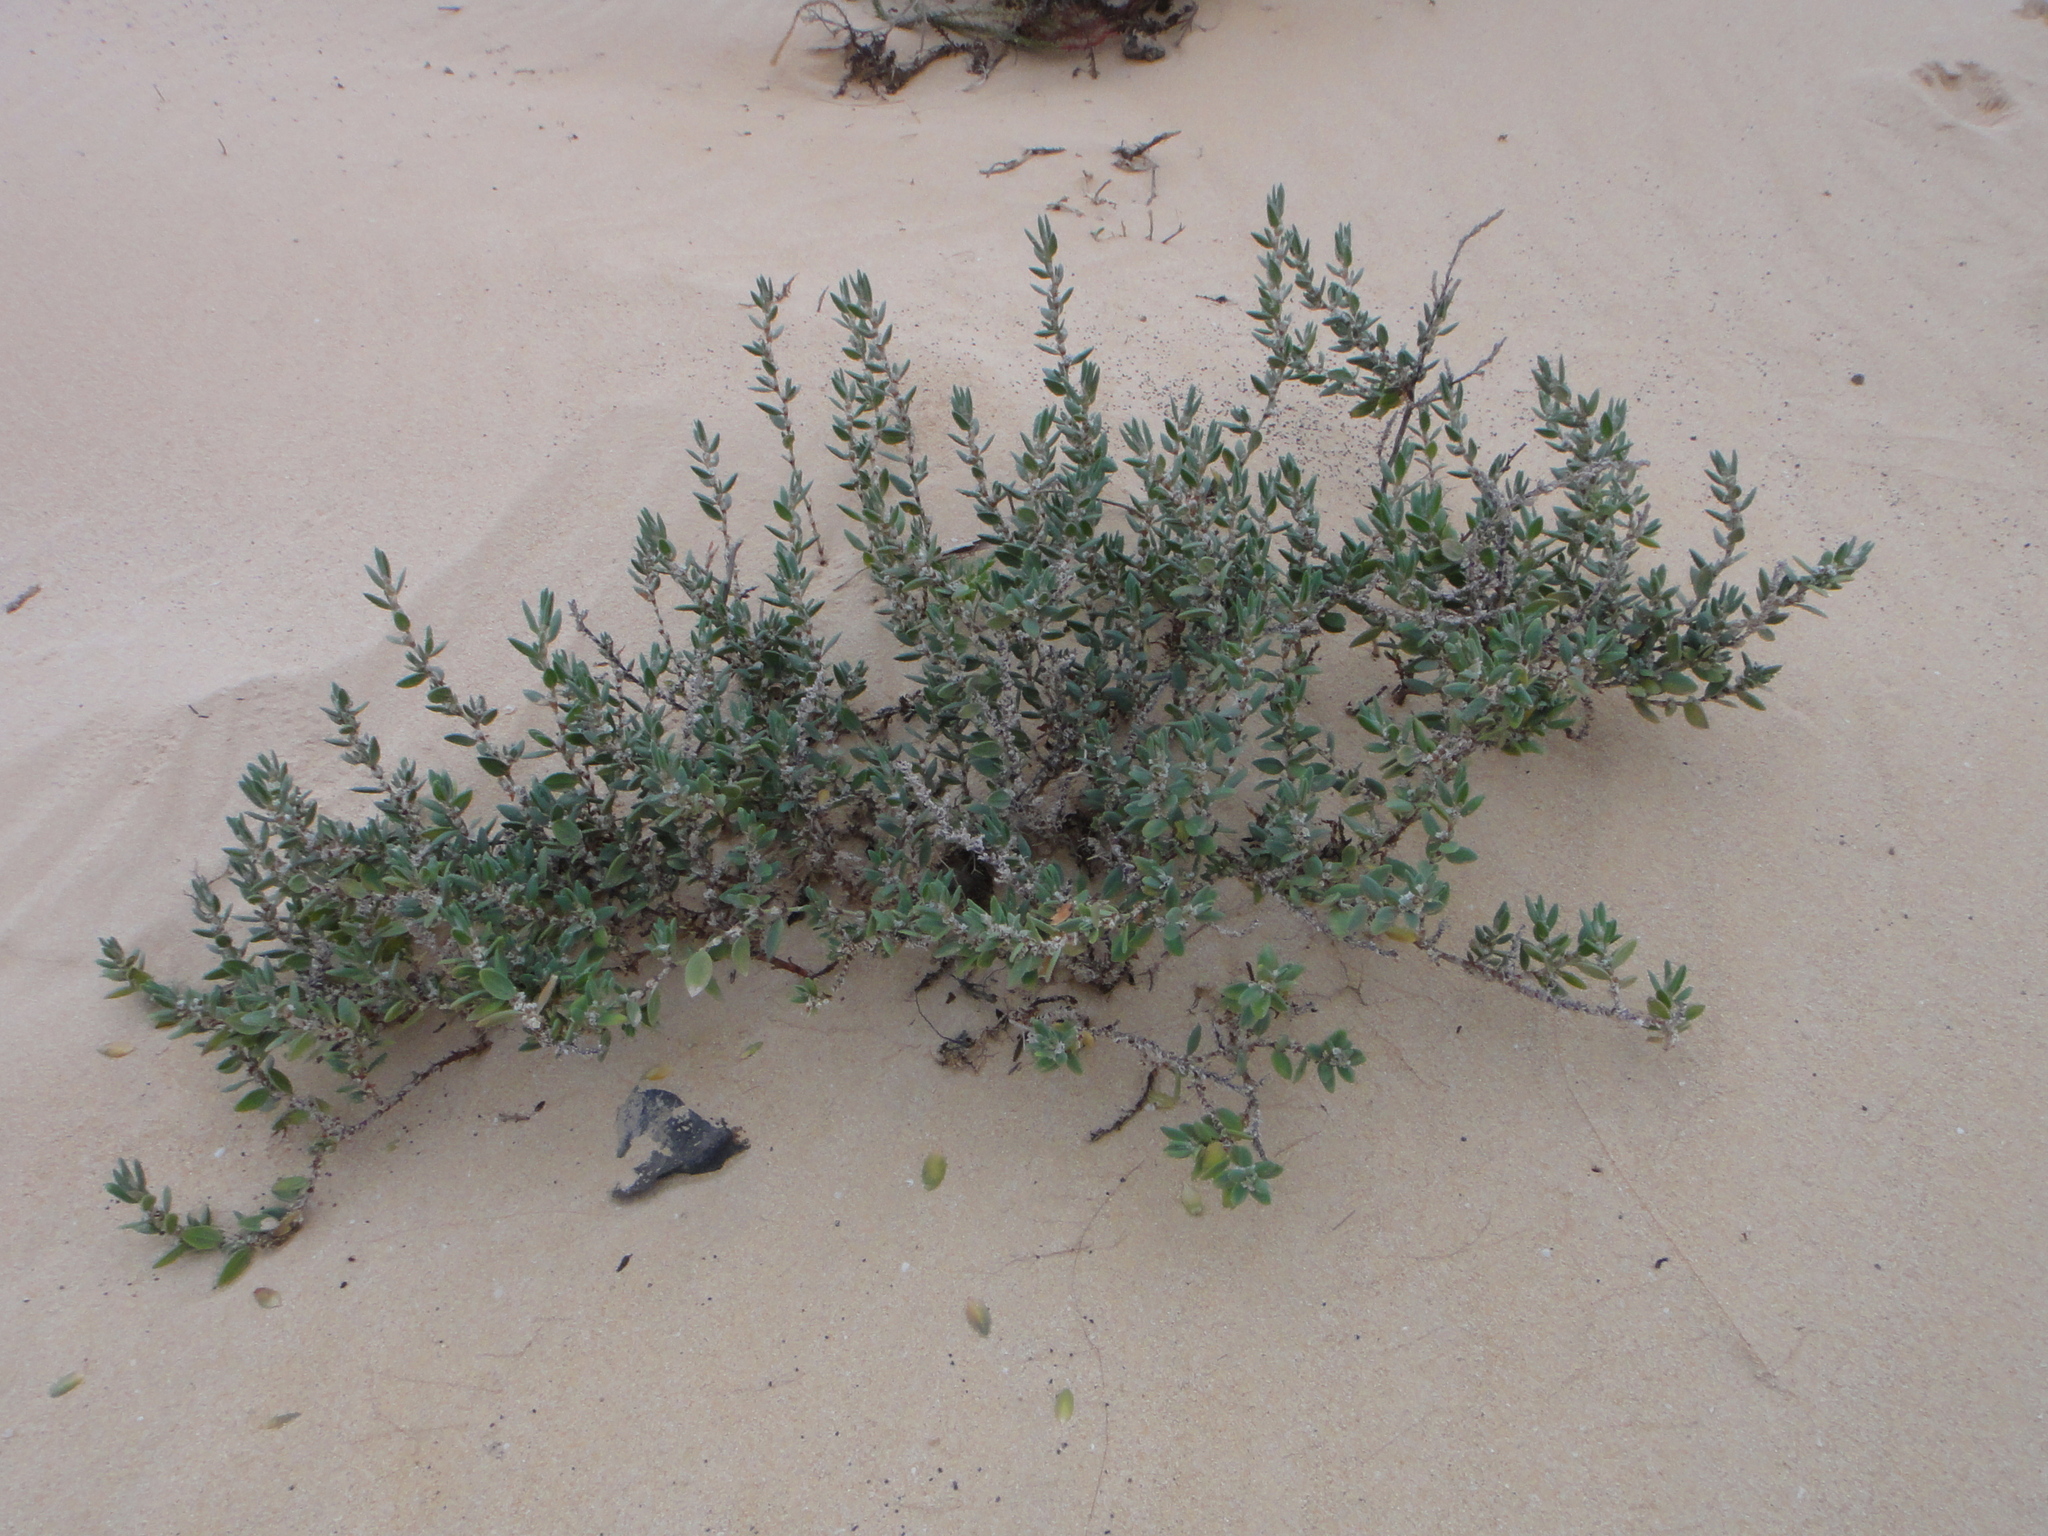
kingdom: Plantae
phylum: Tracheophyta
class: Magnoliopsida
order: Caryophyllales
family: Polygonaceae
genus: Polygonum
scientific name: Polygonum maritimum
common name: Sea knotgrass
